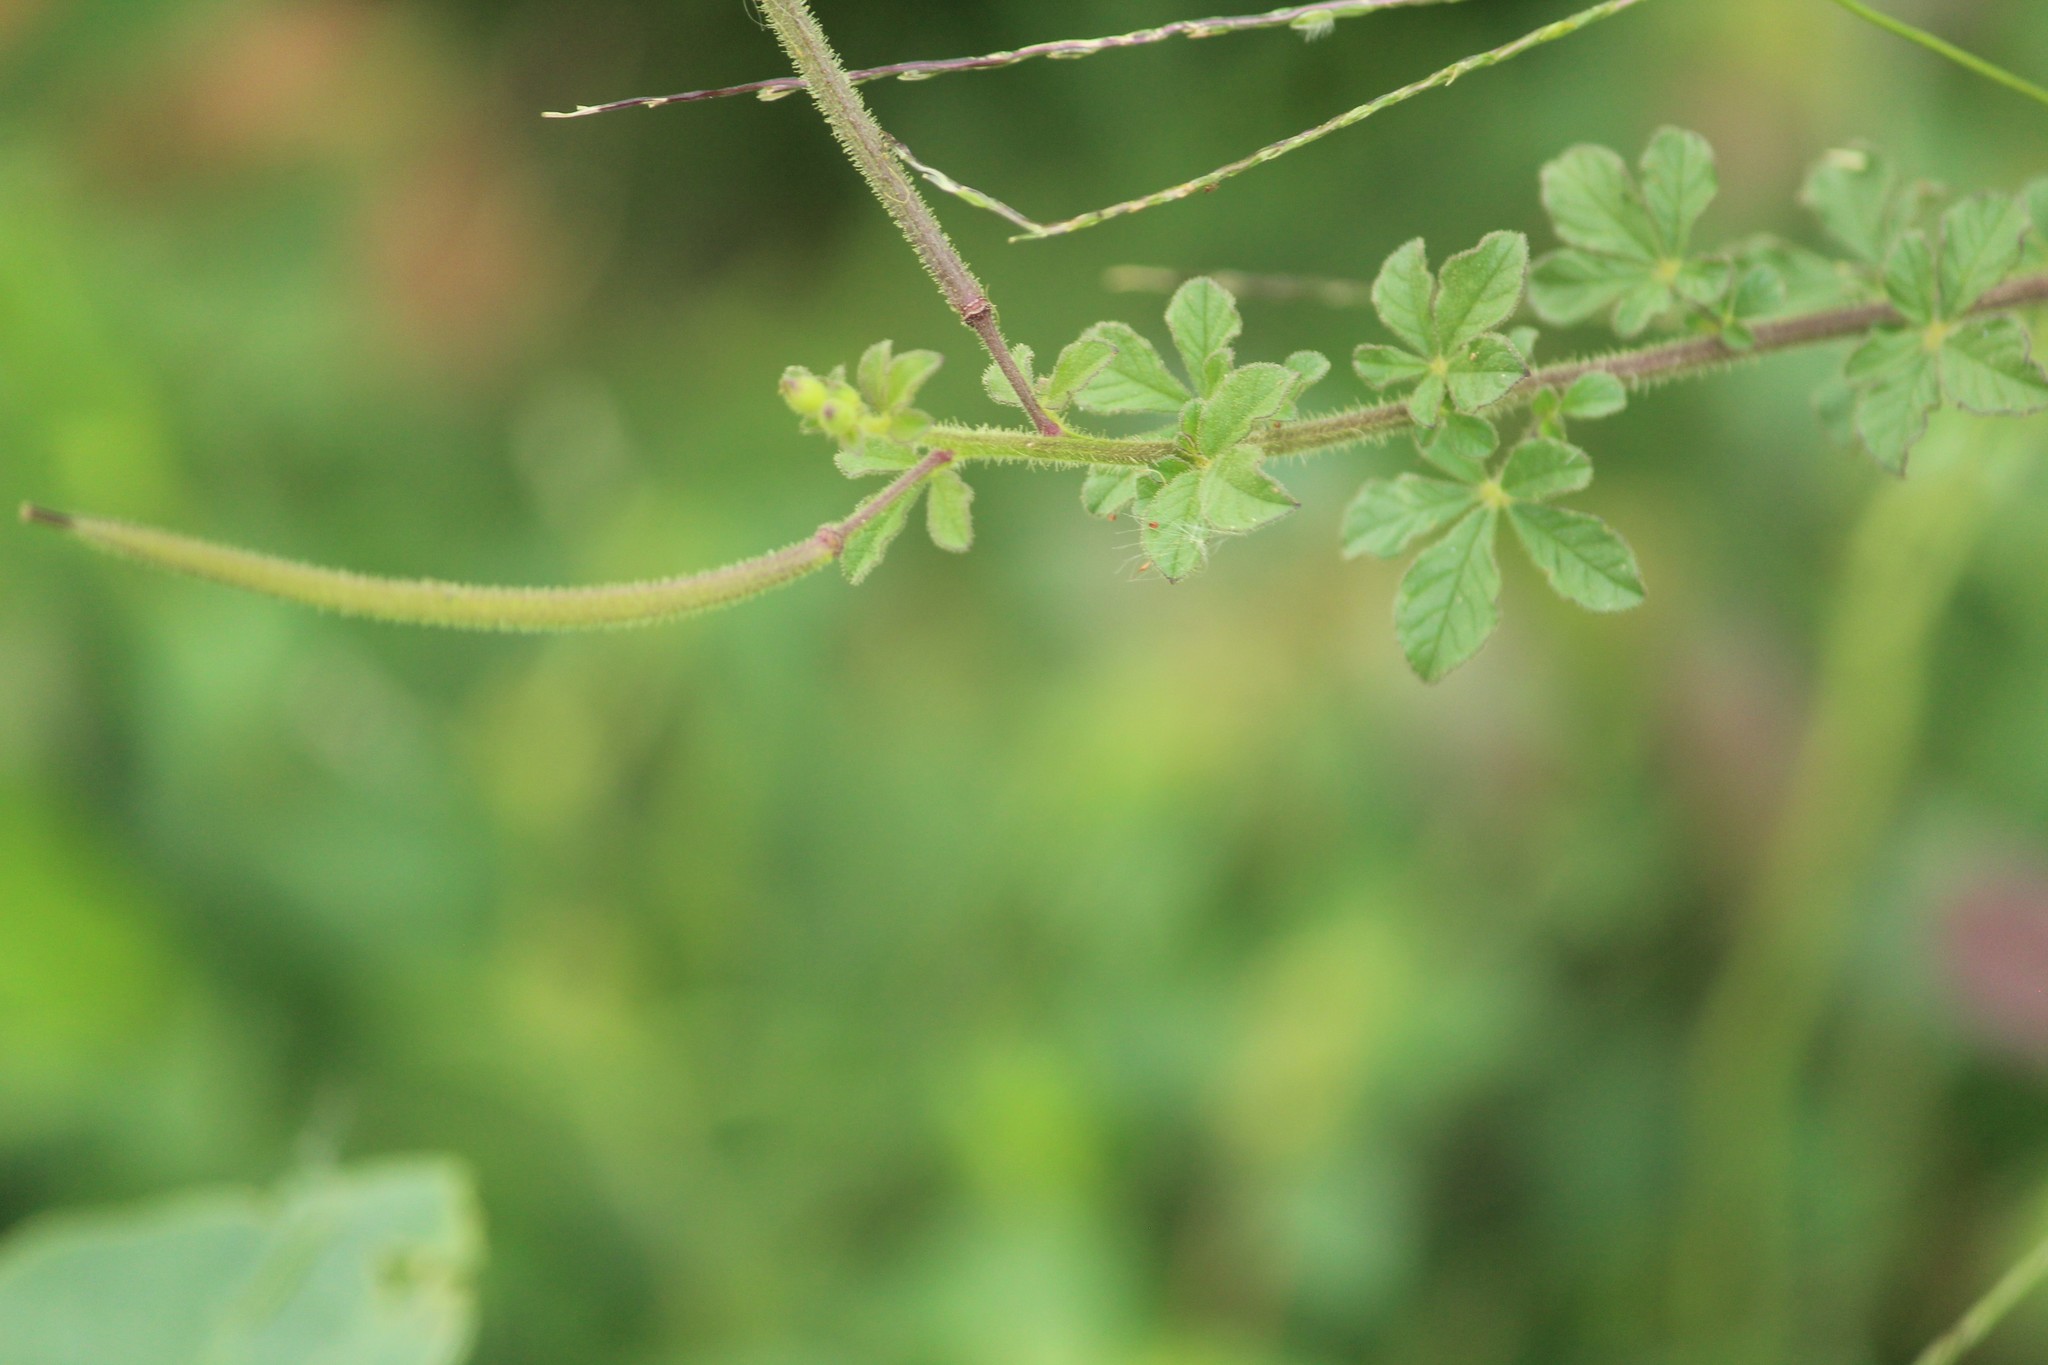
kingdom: Plantae
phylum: Tracheophyta
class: Magnoliopsida
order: Brassicales
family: Cleomaceae
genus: Arivela
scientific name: Arivela viscosa
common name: Asian spiderflower
